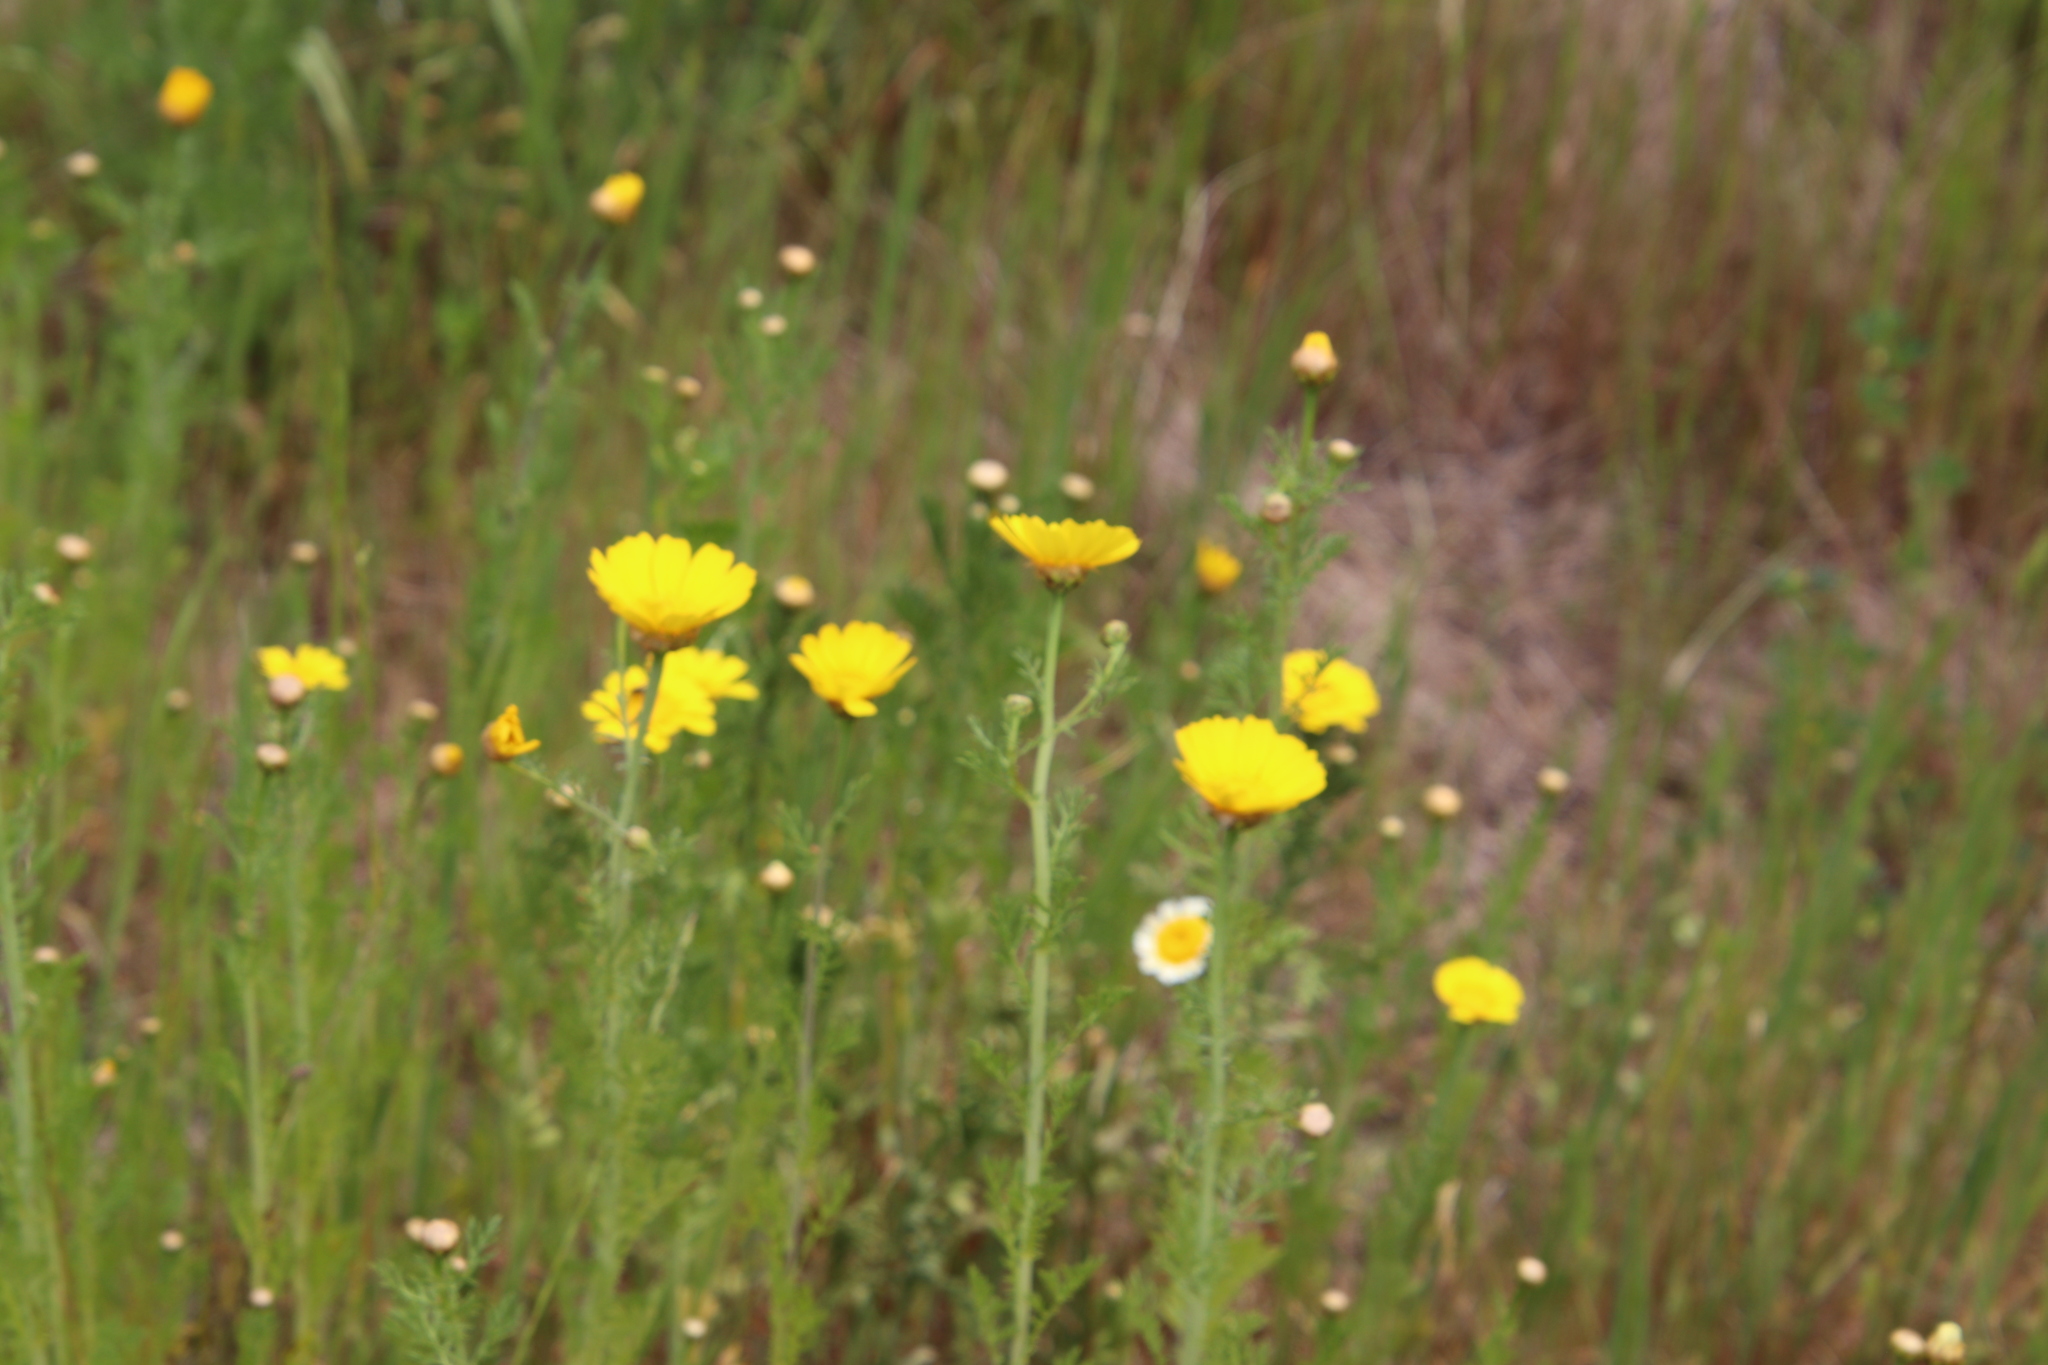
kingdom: Plantae
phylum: Tracheophyta
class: Magnoliopsida
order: Asterales
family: Asteraceae
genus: Glebionis
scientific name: Glebionis coronaria
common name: Crowndaisy
